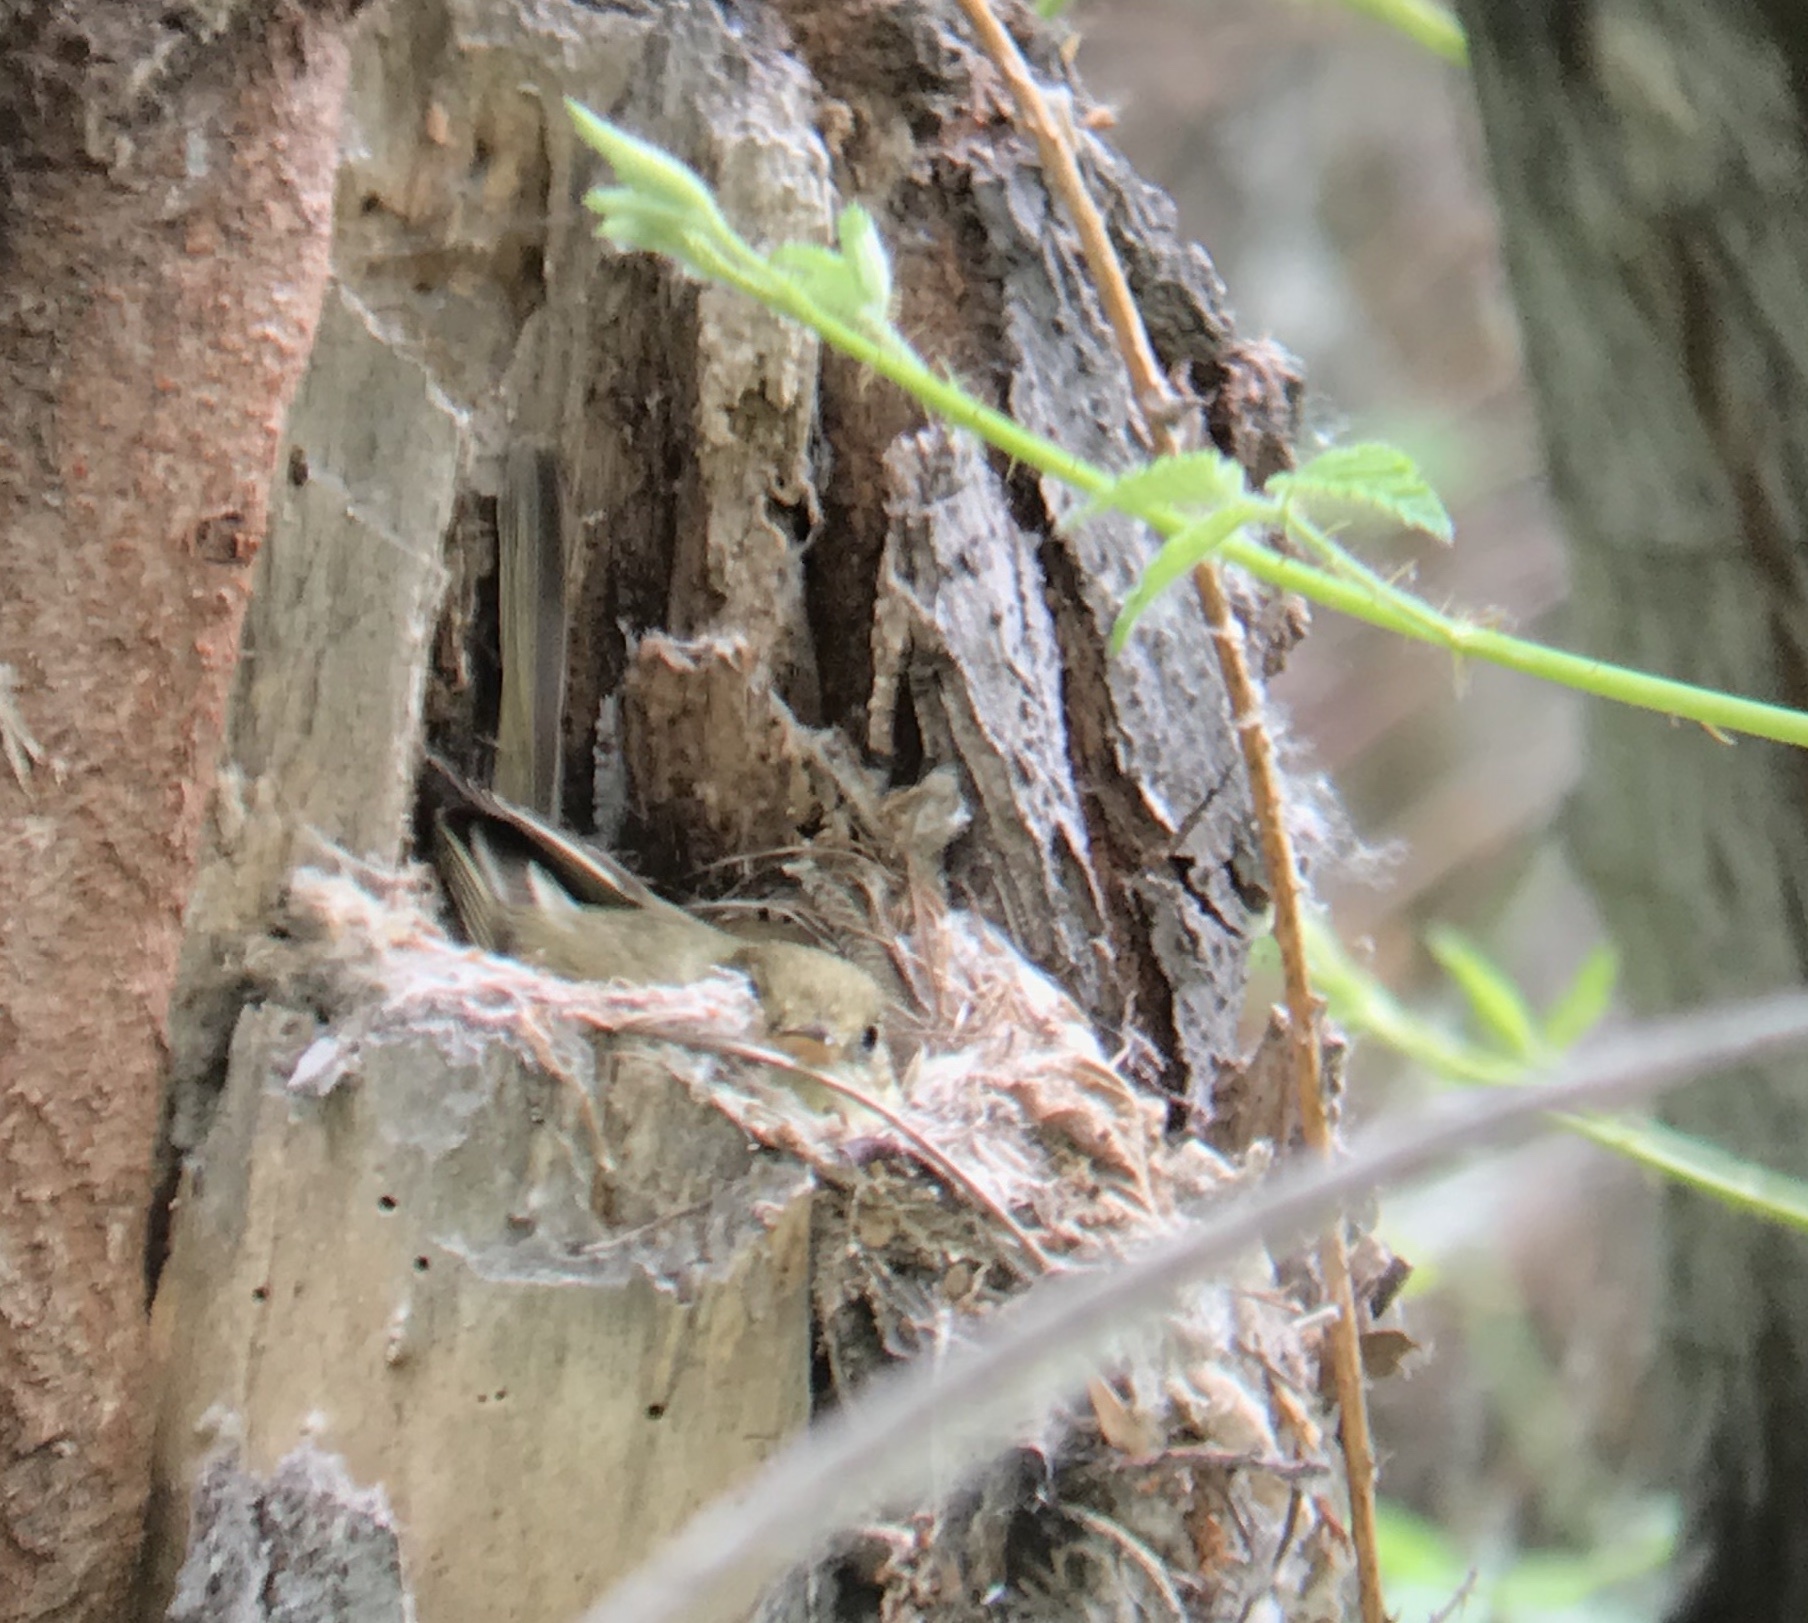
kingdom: Animalia
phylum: Chordata
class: Aves
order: Passeriformes
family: Tyrannidae
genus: Empidonax
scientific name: Empidonax difficilis
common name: Pacific-slope flycatcher
